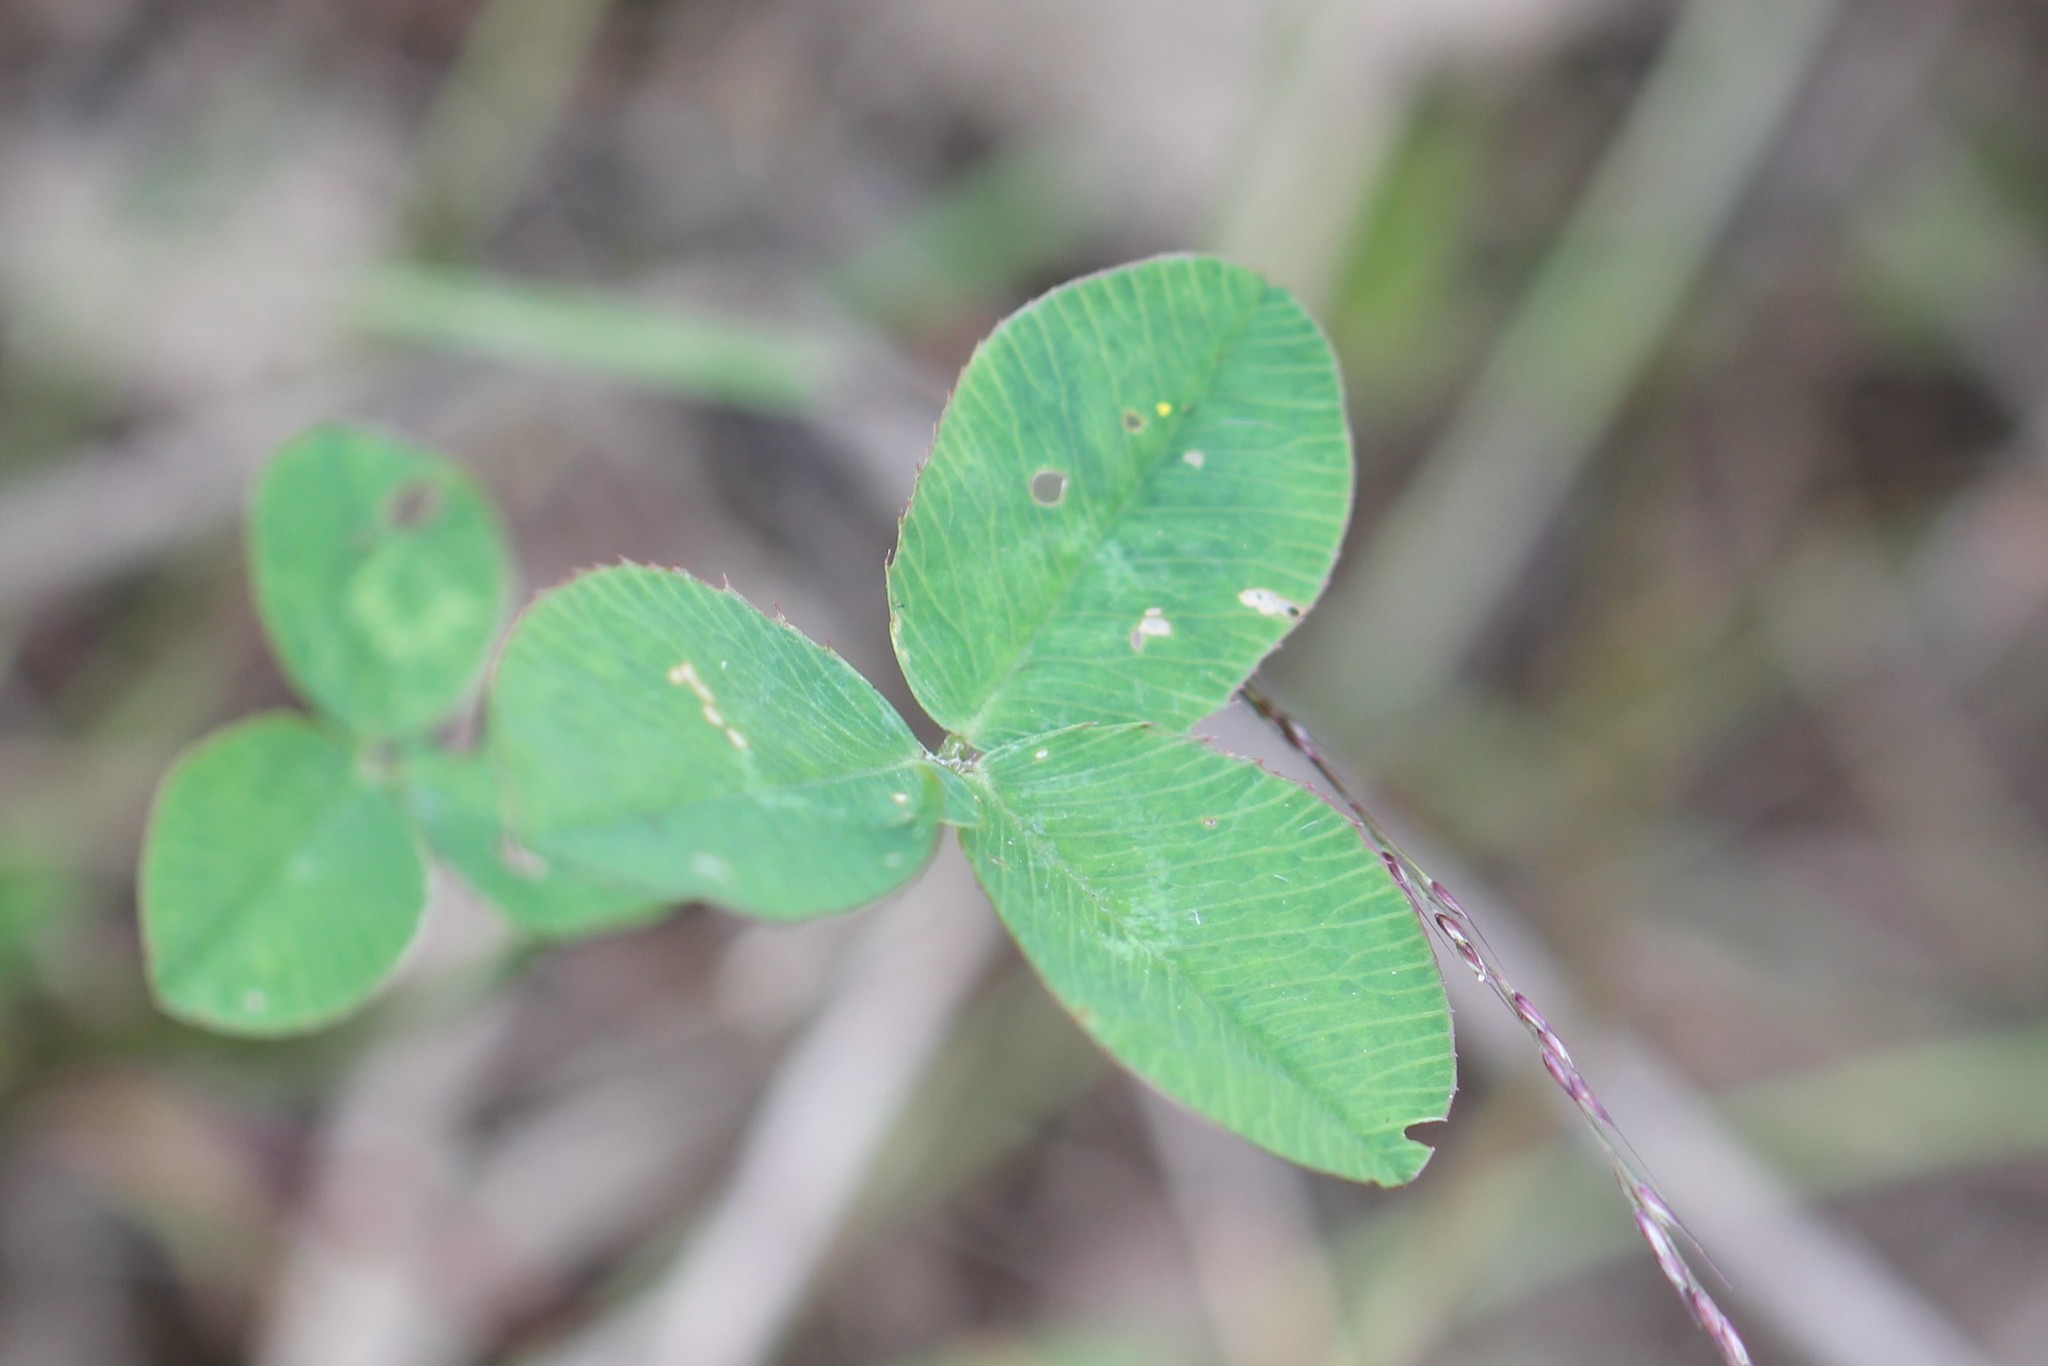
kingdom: Plantae
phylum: Tracheophyta
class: Magnoliopsida
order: Fabales
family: Fabaceae
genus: Trifolium
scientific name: Trifolium repens
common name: White clover
